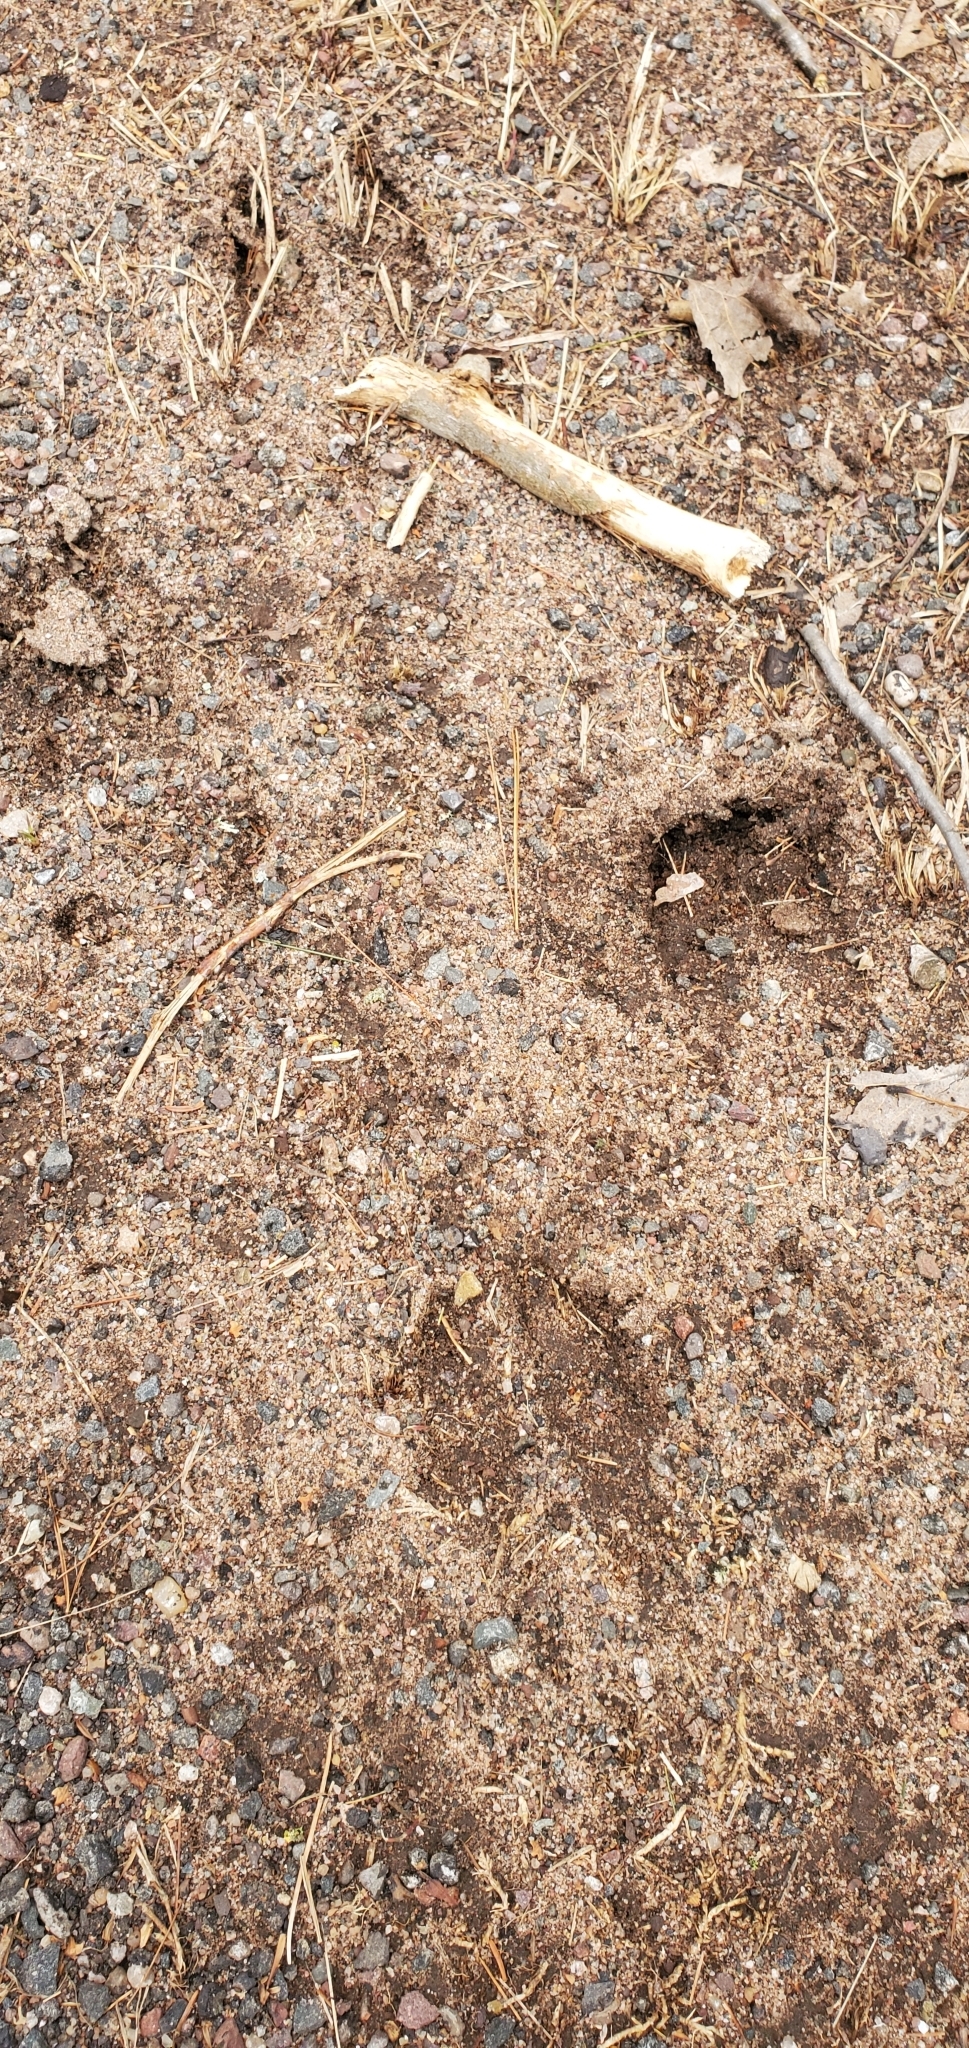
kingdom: Animalia
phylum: Chordata
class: Mammalia
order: Artiodactyla
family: Cervidae
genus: Odocoileus
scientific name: Odocoileus virginianus
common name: White-tailed deer
